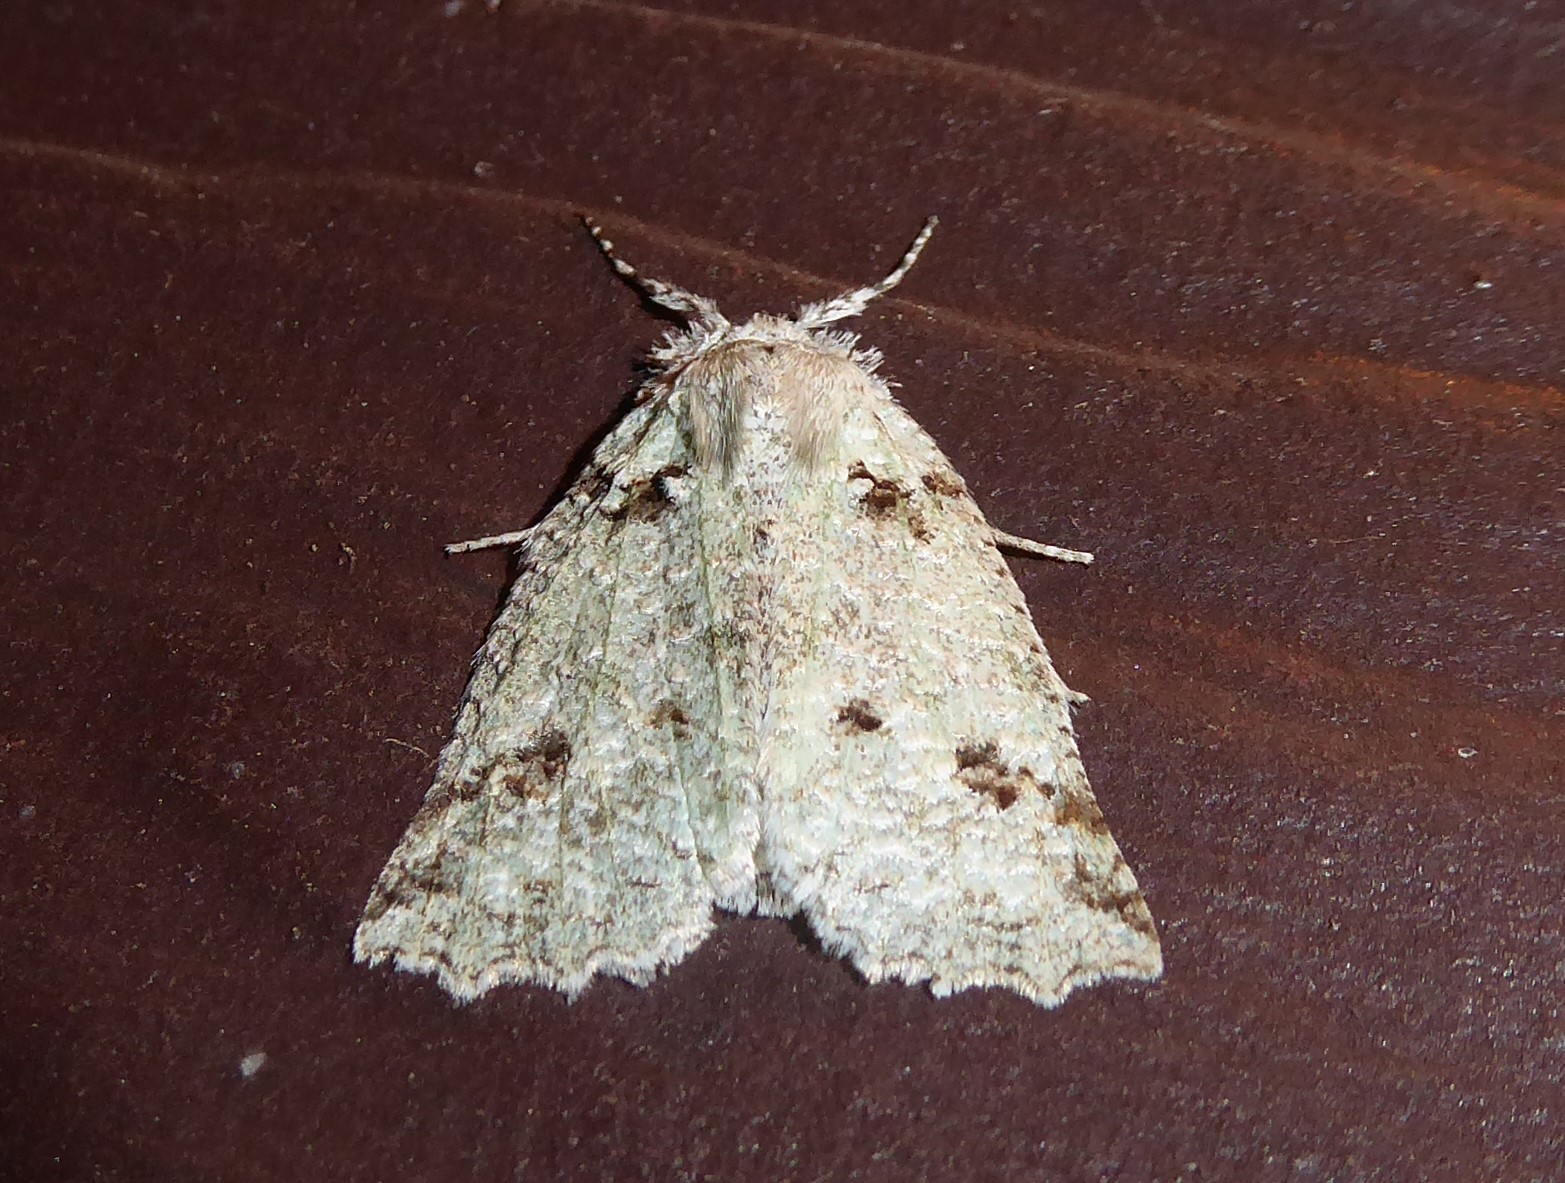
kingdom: Animalia
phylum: Arthropoda
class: Insecta
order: Lepidoptera
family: Geometridae
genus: Declana
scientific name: Declana floccosa
